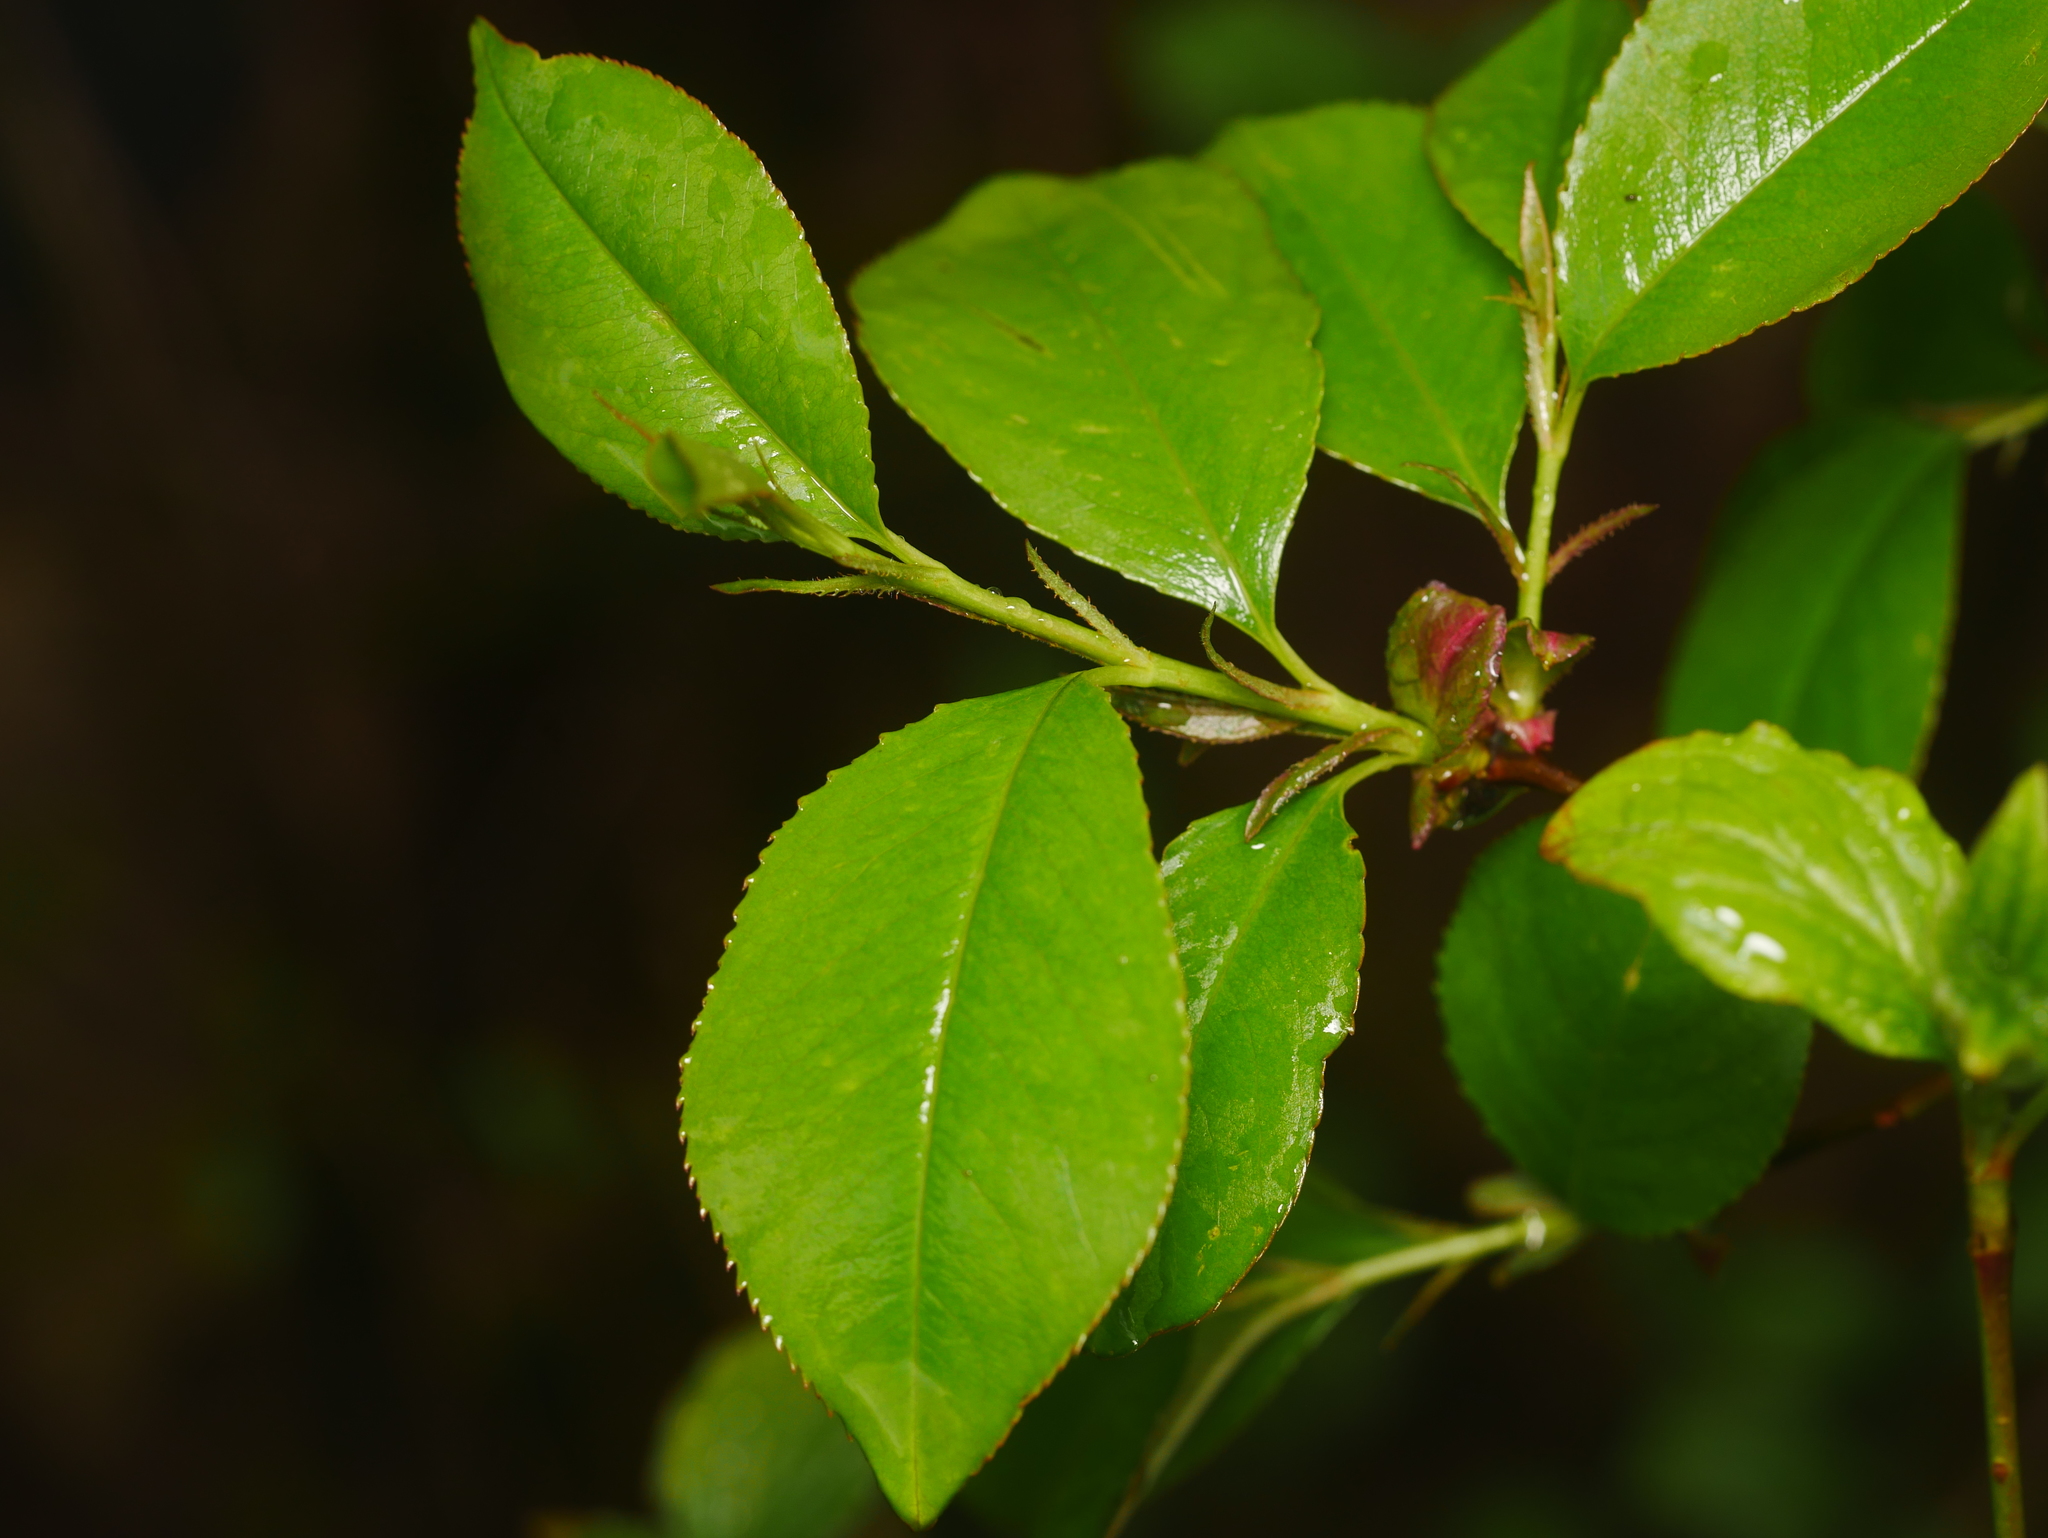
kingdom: Plantae
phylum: Tracheophyta
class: Magnoliopsida
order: Rosales
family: Rosaceae
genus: Prunus
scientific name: Prunus serotina
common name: Black cherry
